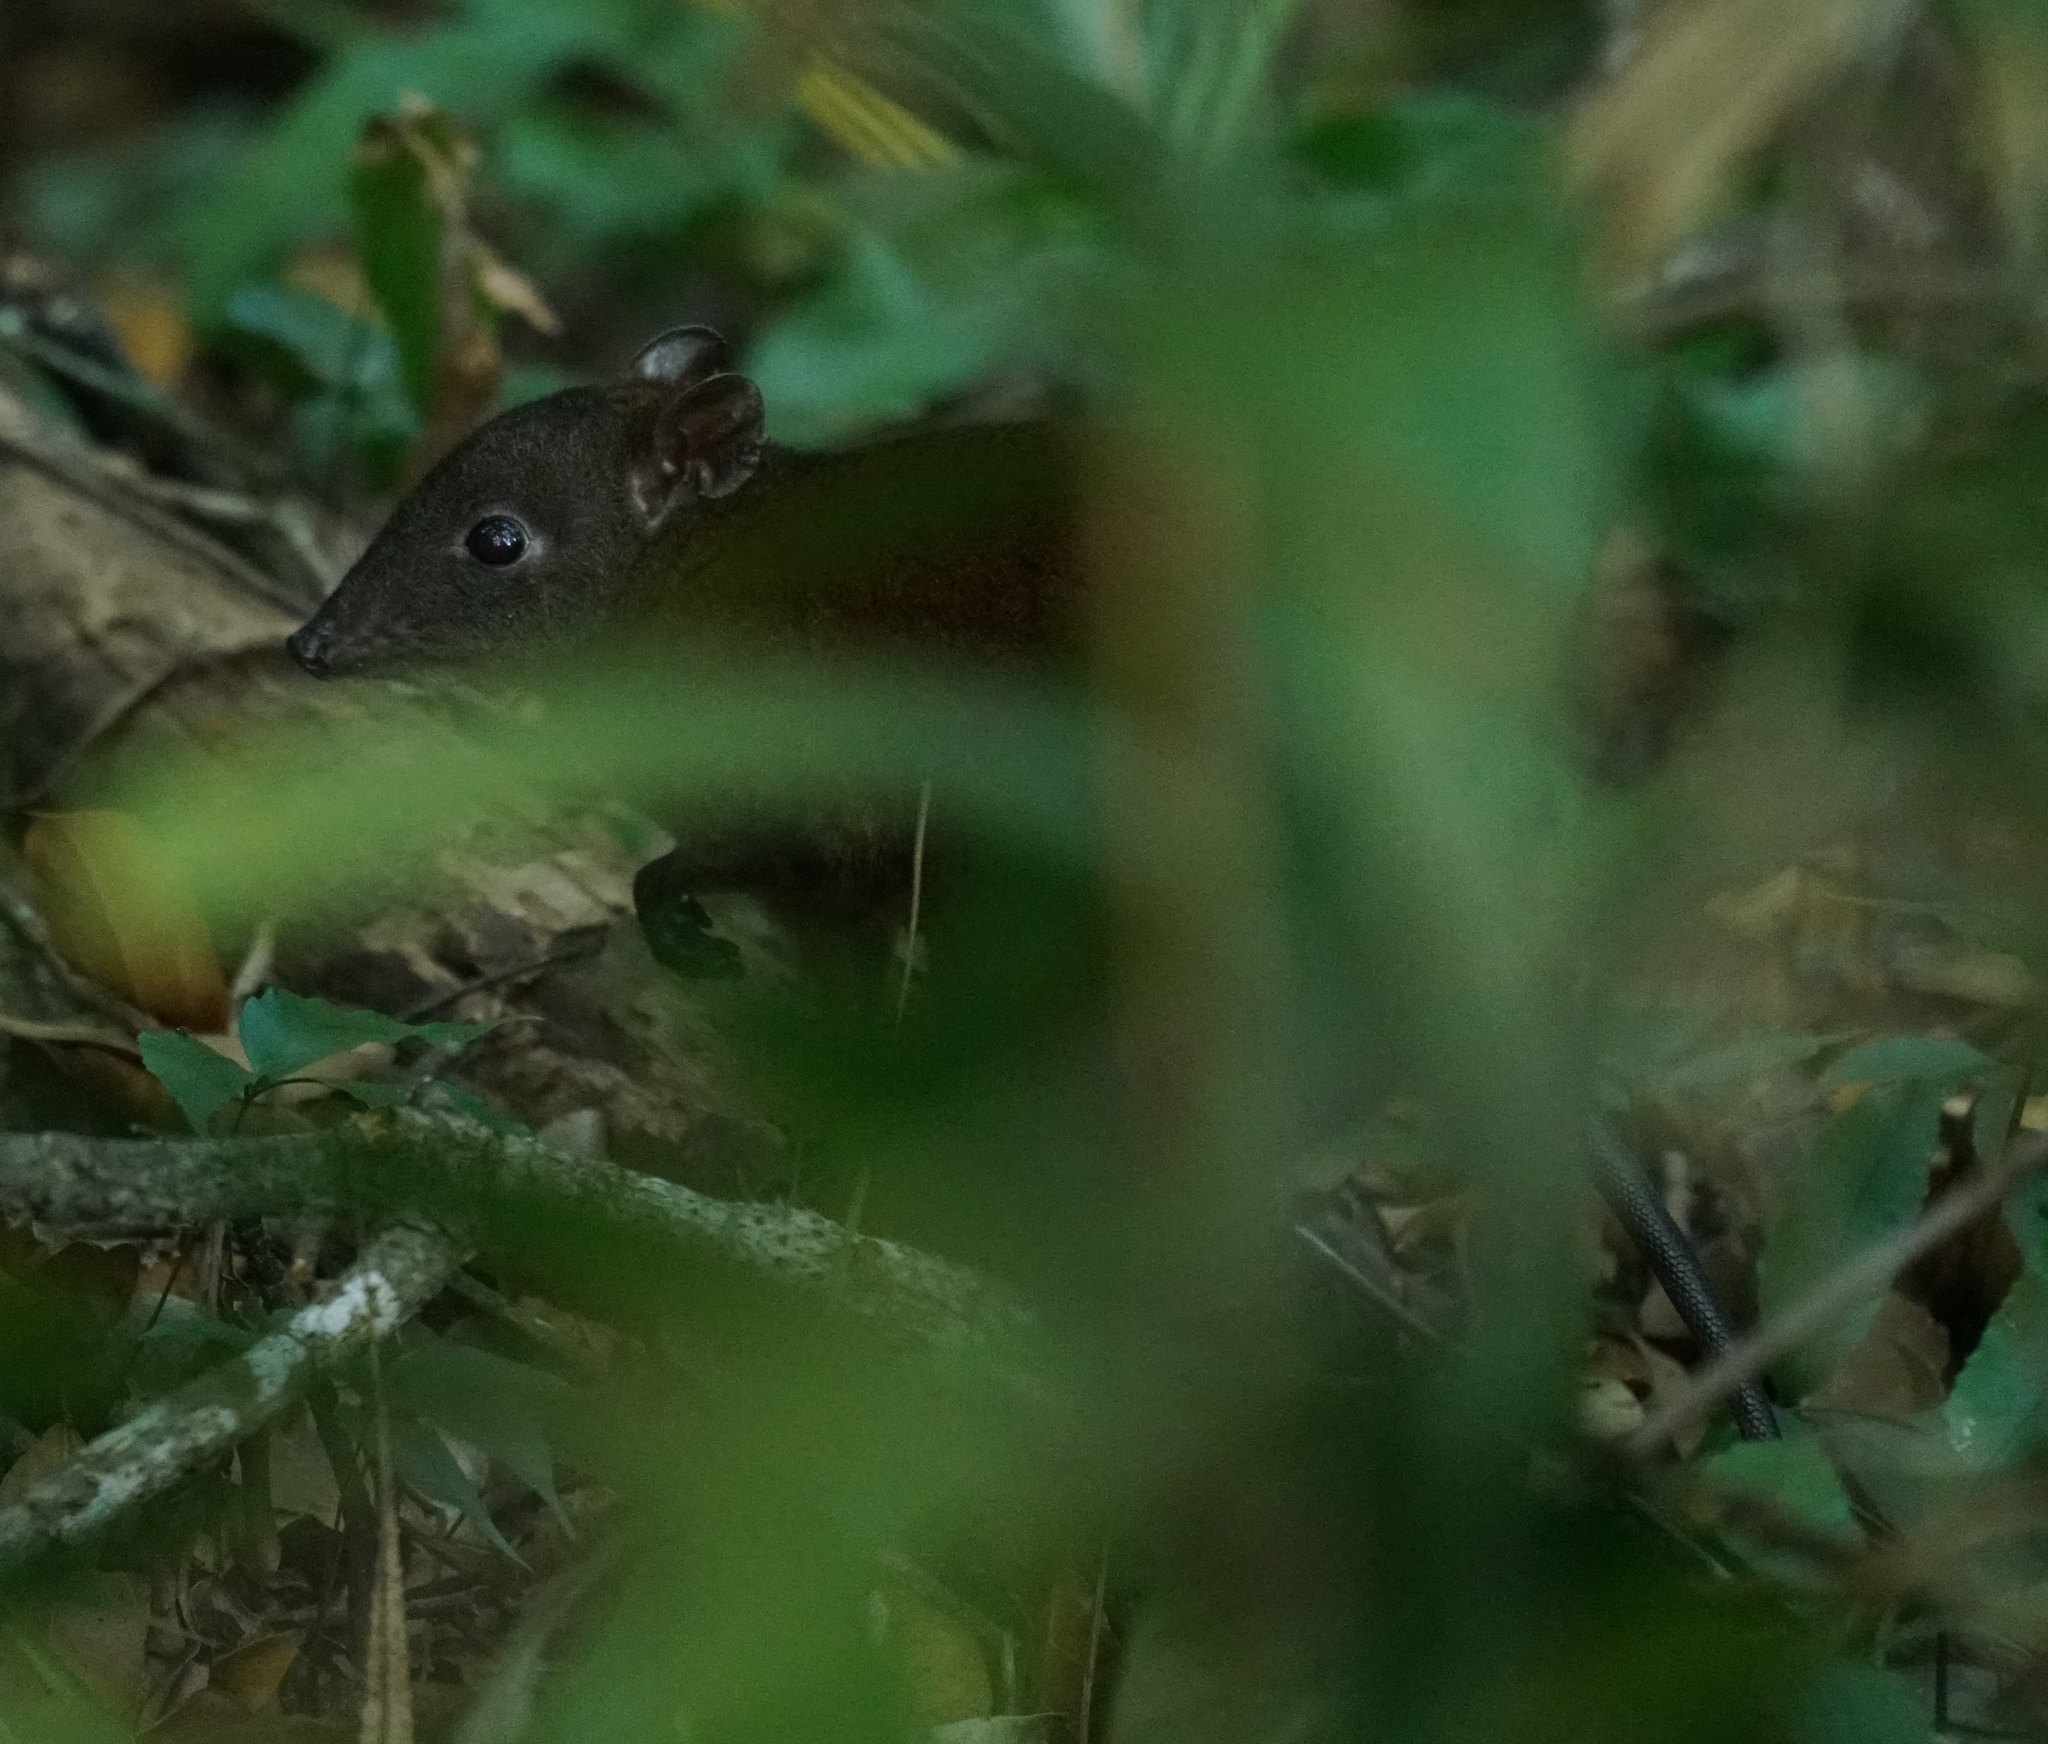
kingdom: Animalia
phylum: Chordata
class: Mammalia
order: Diprotodontia
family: Hypsiprymnodontidae
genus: Hypsiprymnodon
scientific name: Hypsiprymnodon moschatus
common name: Musky rat-kangaroo
